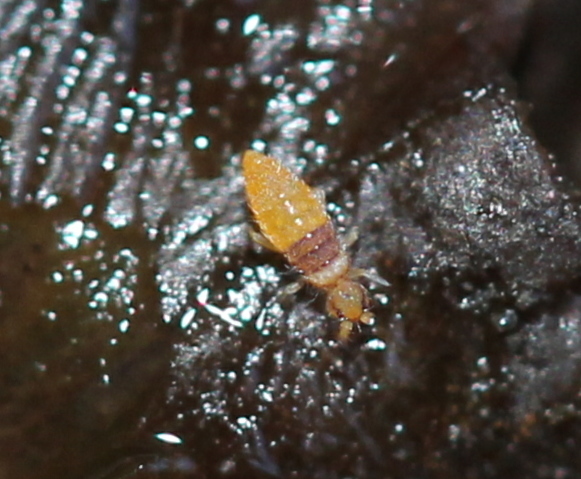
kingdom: Animalia
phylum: Arthropoda
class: Collembola
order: Entomobryomorpha
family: Entomobryidae
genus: Entomobrya
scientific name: Entomobrya atrocincta
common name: Springtail
